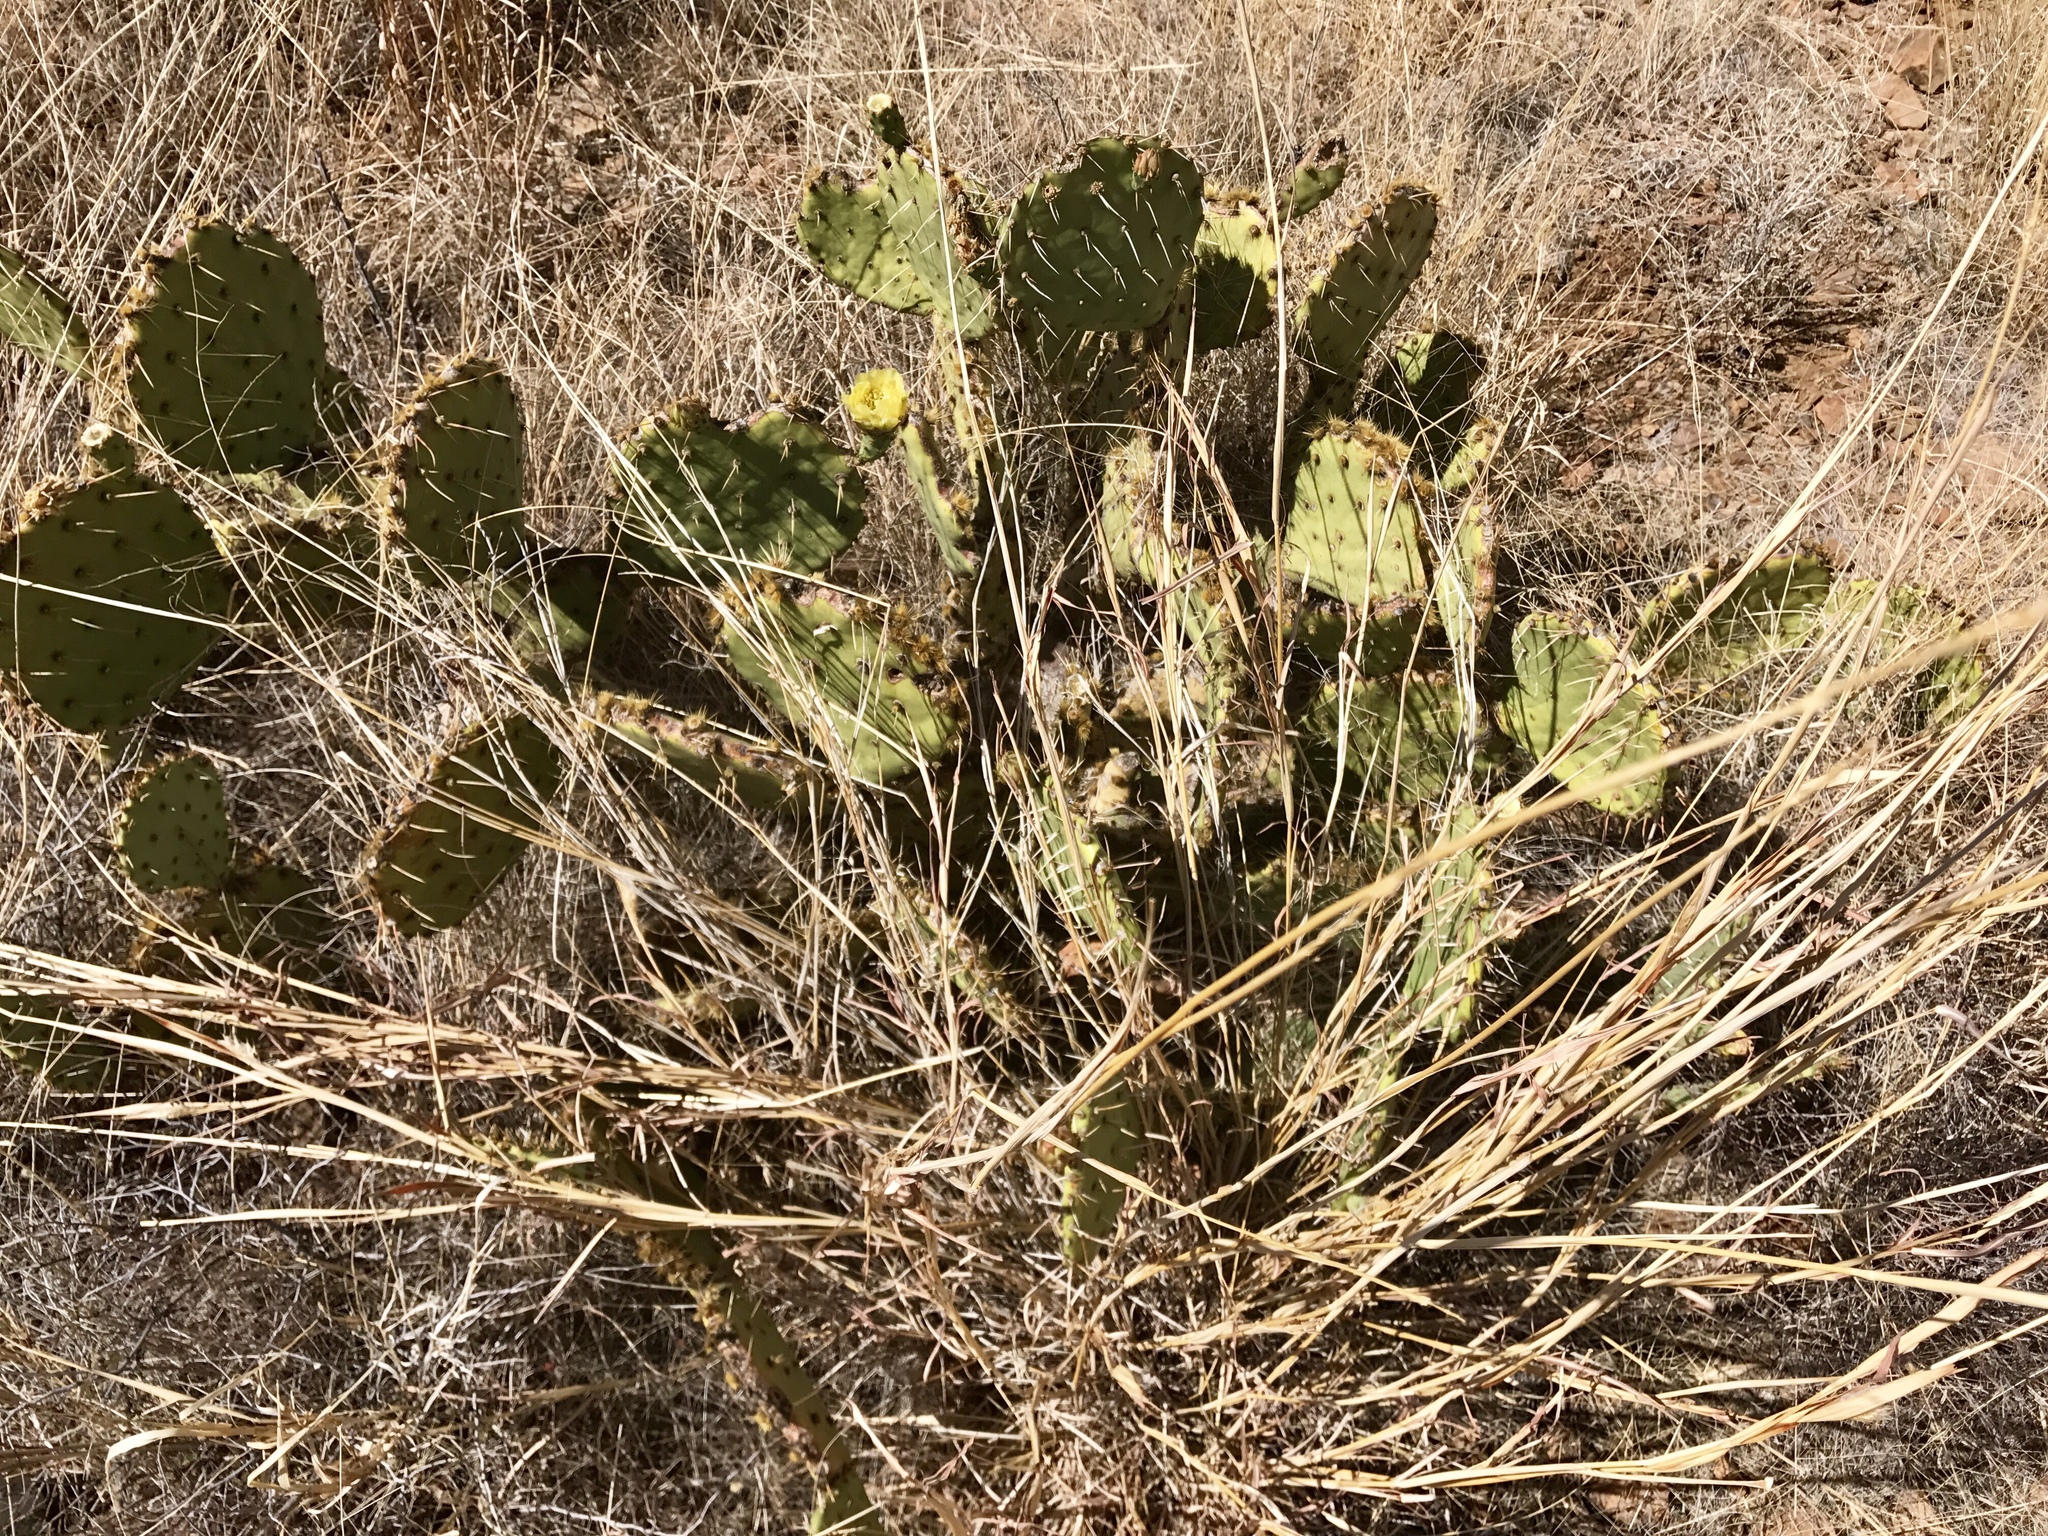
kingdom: Plantae
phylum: Tracheophyta
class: Magnoliopsida
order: Caryophyllales
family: Cactaceae
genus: Opuntia
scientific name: Opuntia engelmannii
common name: Cactus-apple
